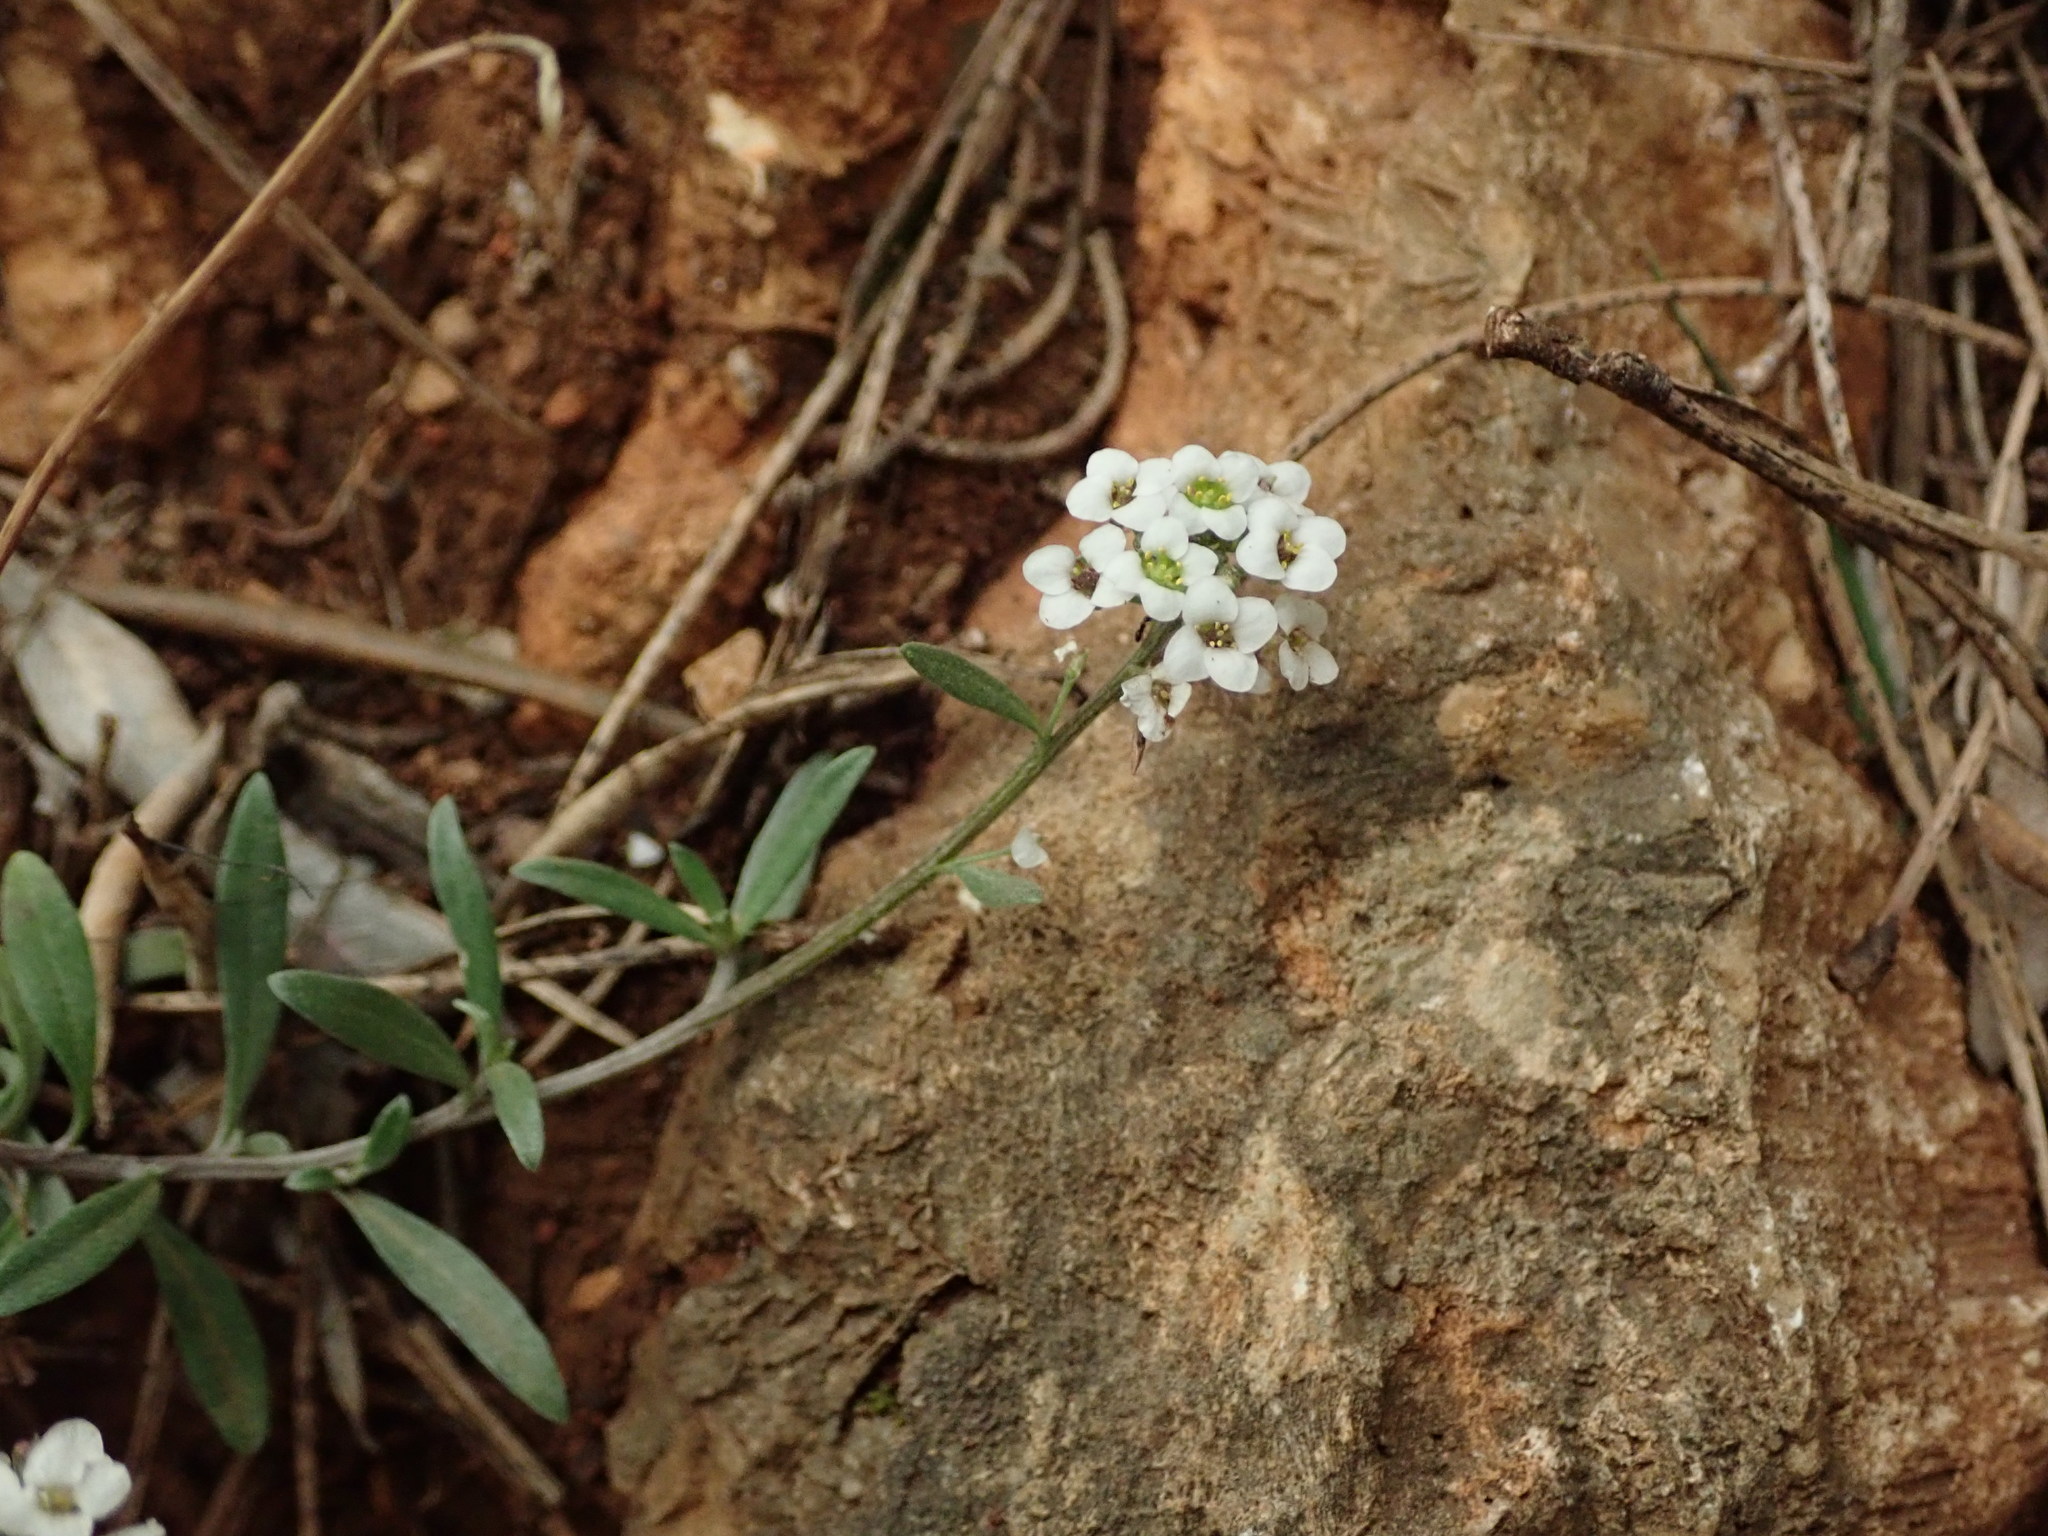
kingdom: Plantae
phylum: Tracheophyta
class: Magnoliopsida
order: Brassicales
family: Brassicaceae
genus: Lobularia
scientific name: Lobularia maritima
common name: Sweet alison
